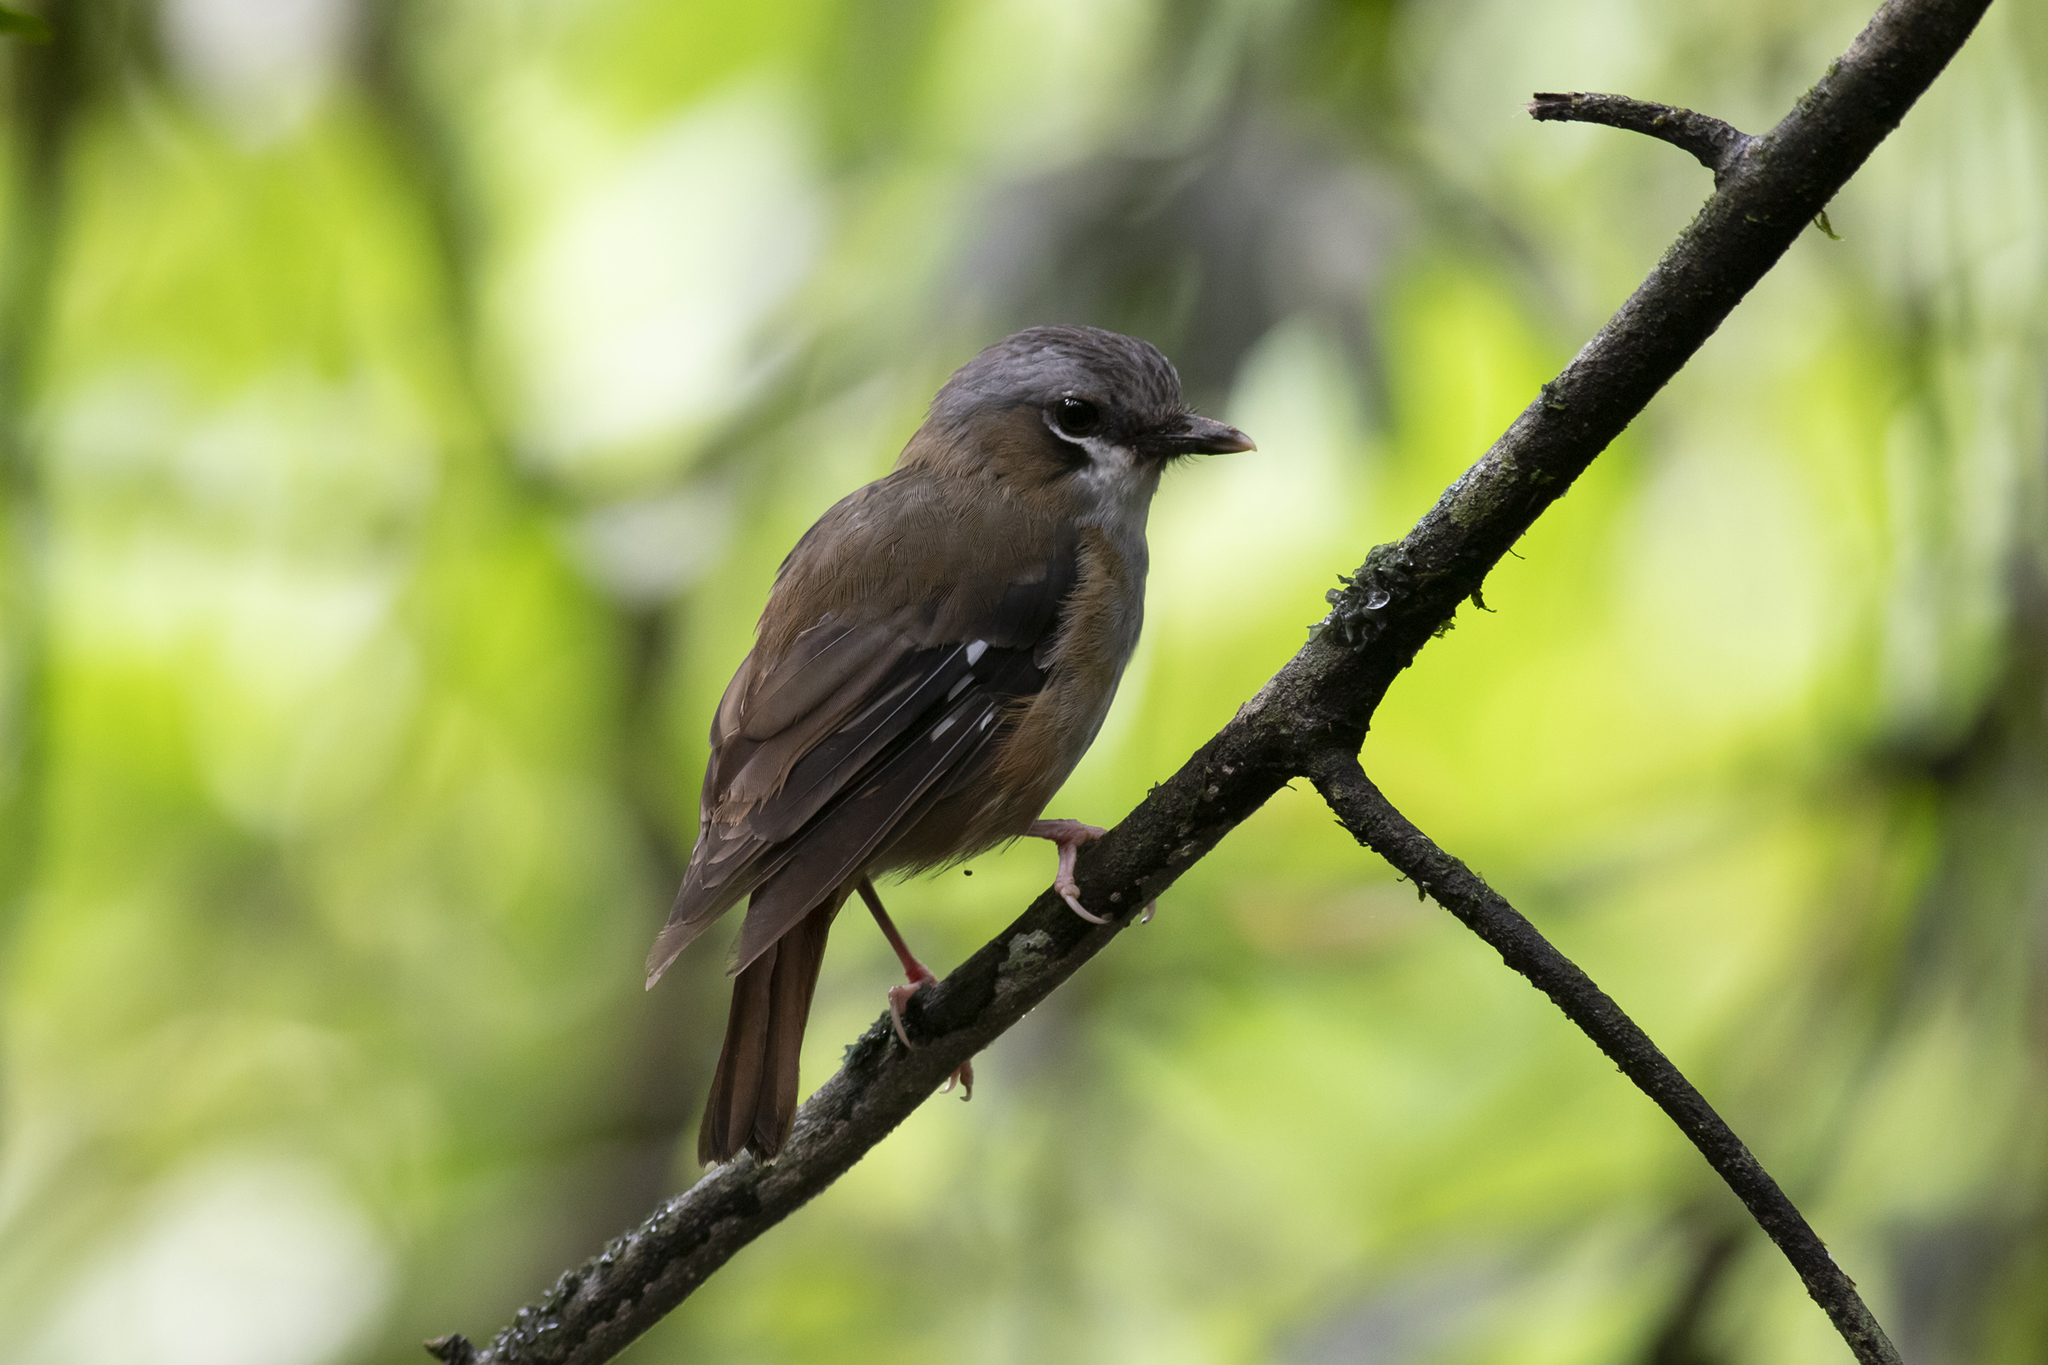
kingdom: Animalia
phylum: Chordata
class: Aves
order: Passeriformes
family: Petroicidae
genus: Heteromyias
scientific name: Heteromyias cinereifrons
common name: Grey-headed robin
